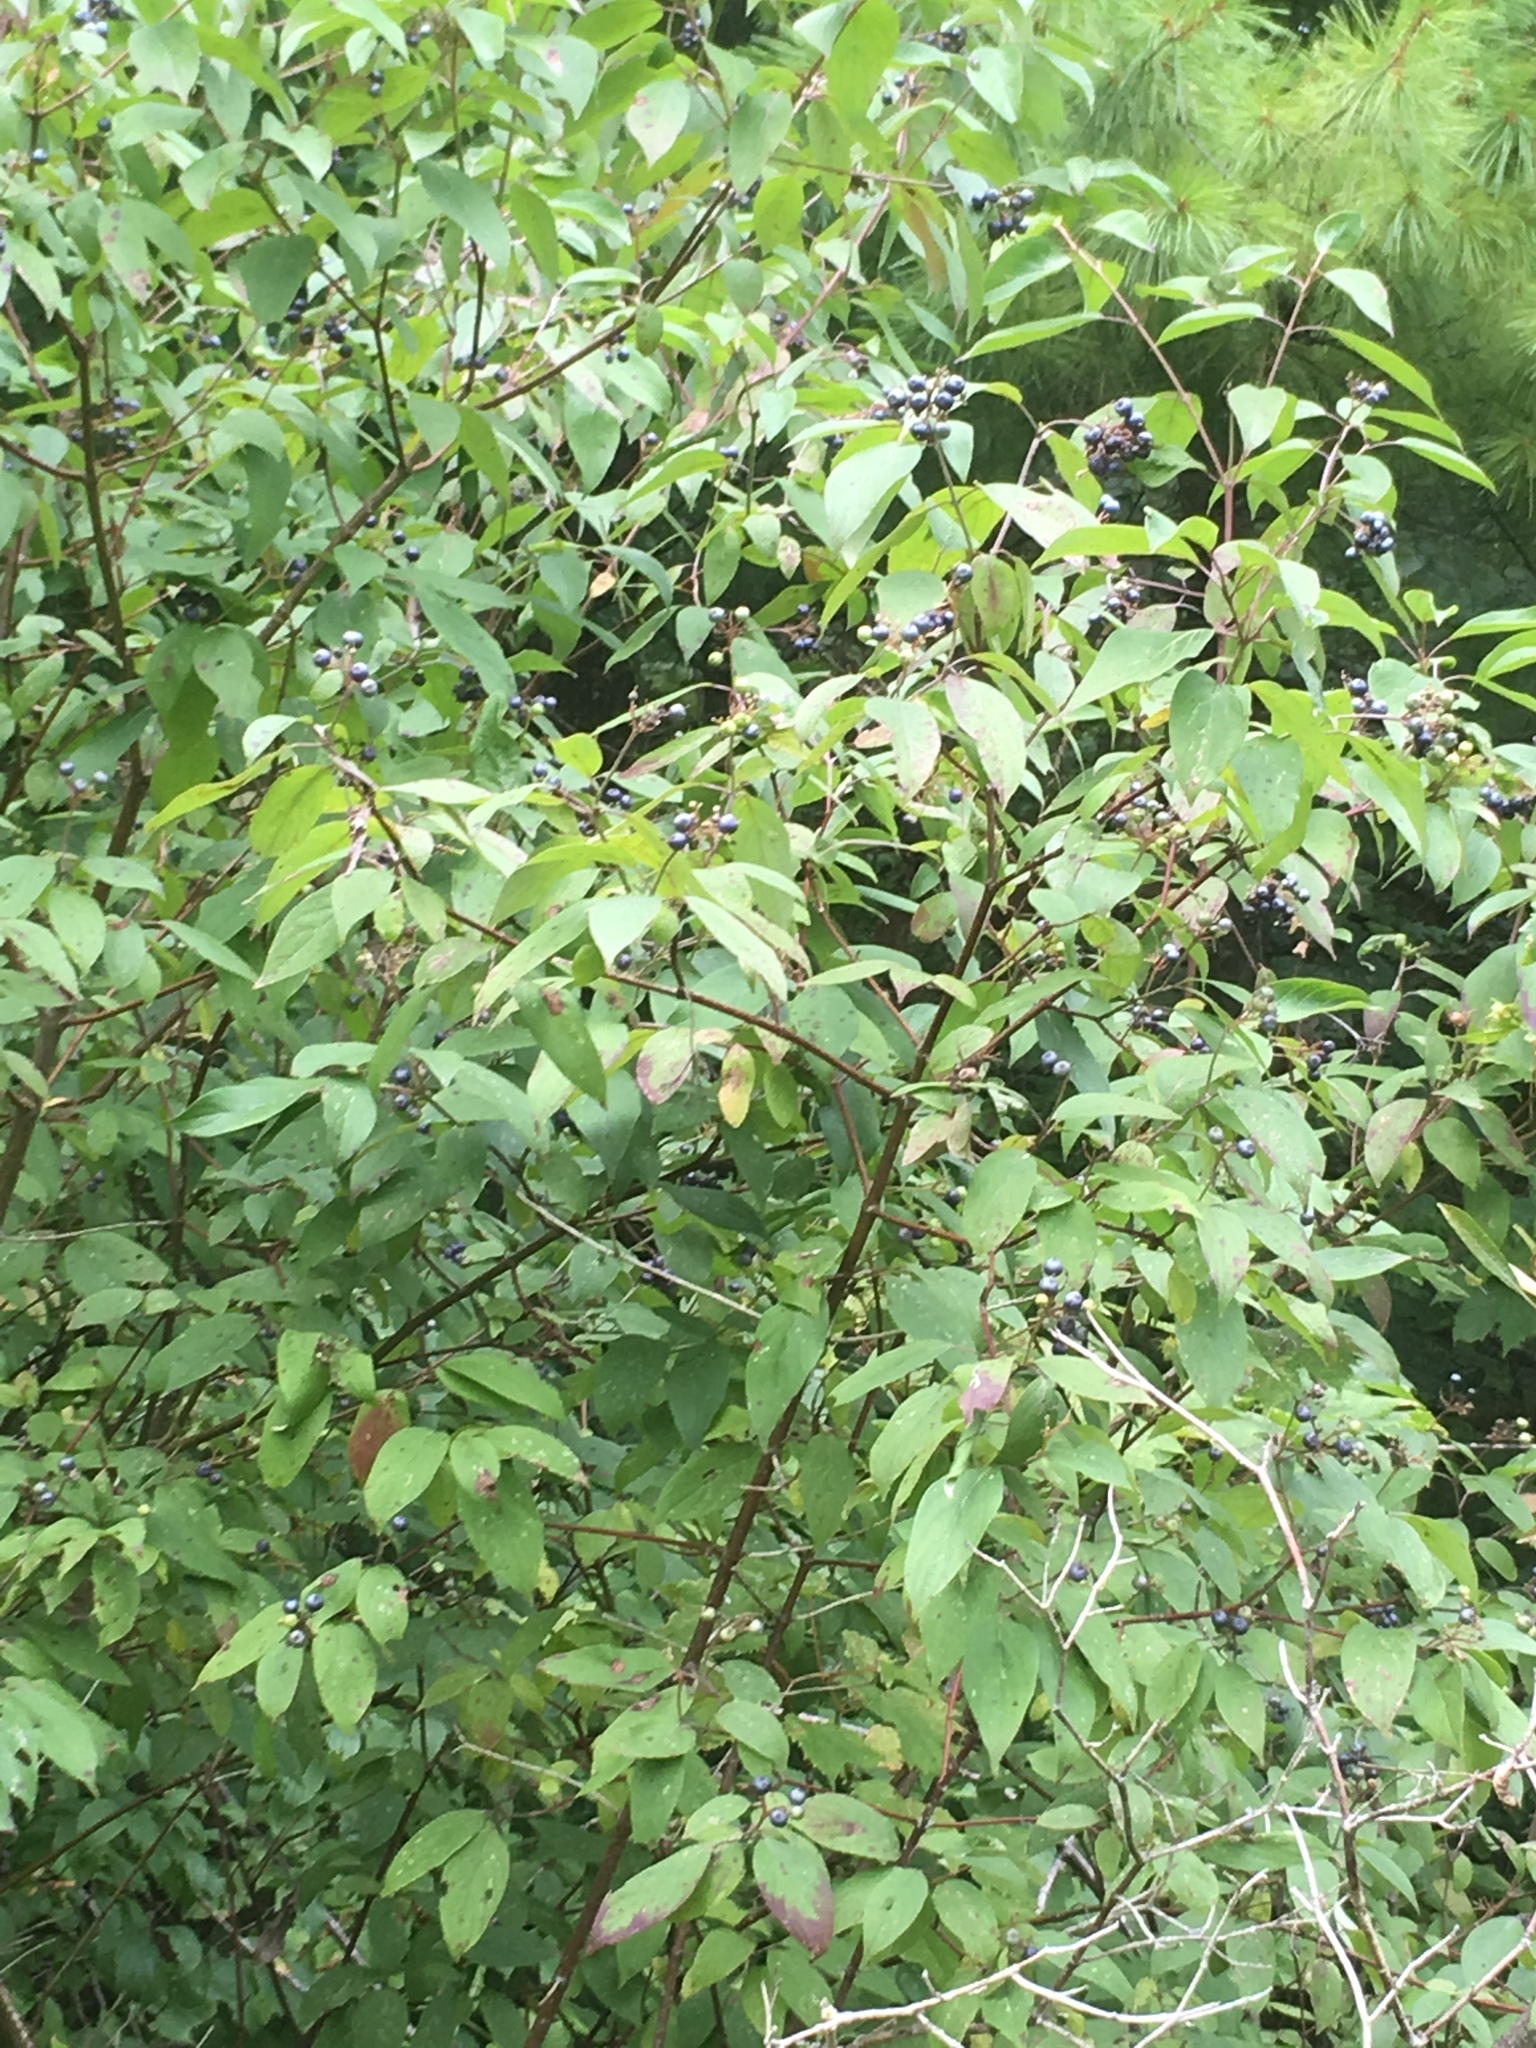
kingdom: Plantae
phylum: Tracheophyta
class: Magnoliopsida
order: Cornales
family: Cornaceae
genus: Cornus
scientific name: Cornus amomum
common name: Silky dogwood
